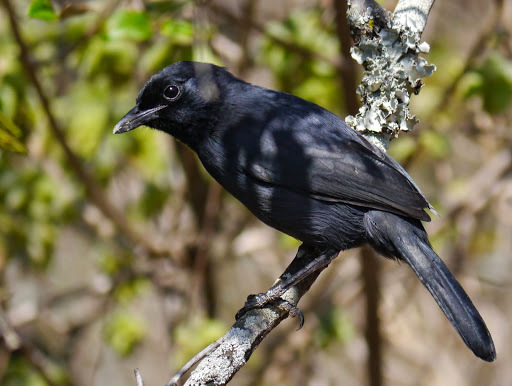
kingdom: Animalia
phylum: Chordata
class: Aves
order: Passeriformes
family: Malaconotidae
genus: Laniarius
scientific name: Laniarius funebris
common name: Slate-colored boubou
